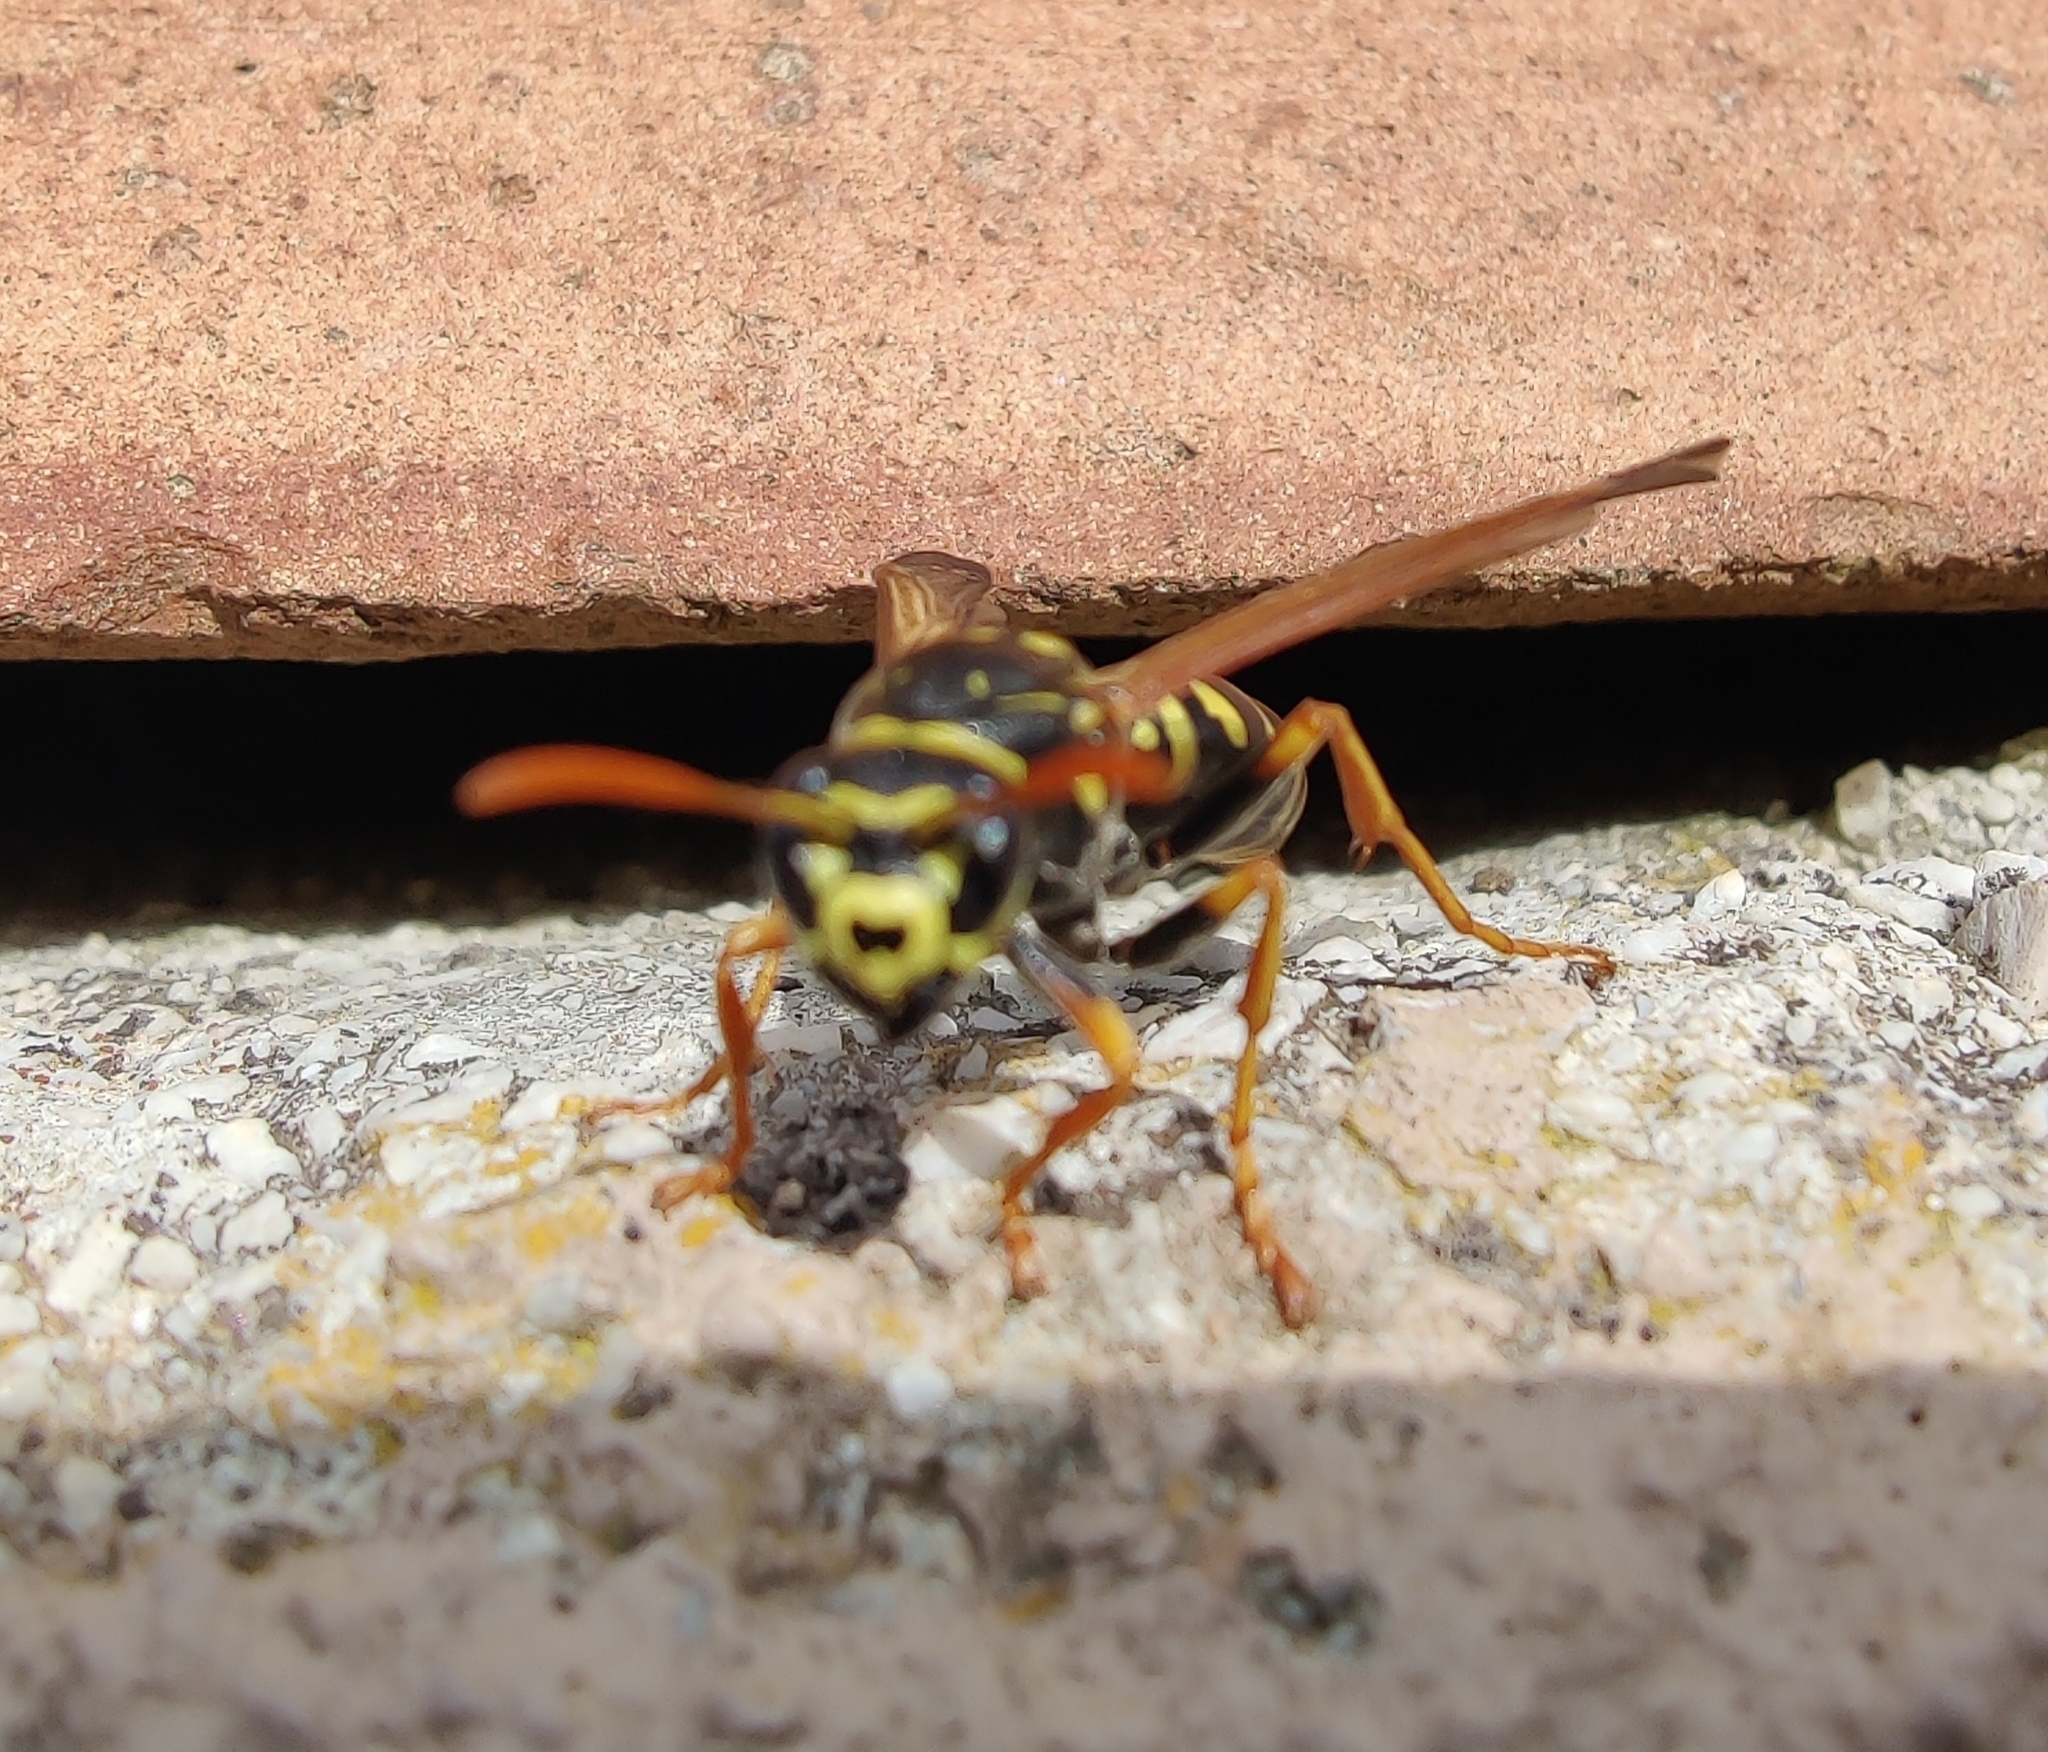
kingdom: Animalia
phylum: Arthropoda
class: Insecta
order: Hymenoptera
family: Eumenidae
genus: Polistes
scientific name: Polistes dominula
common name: Paper wasp
